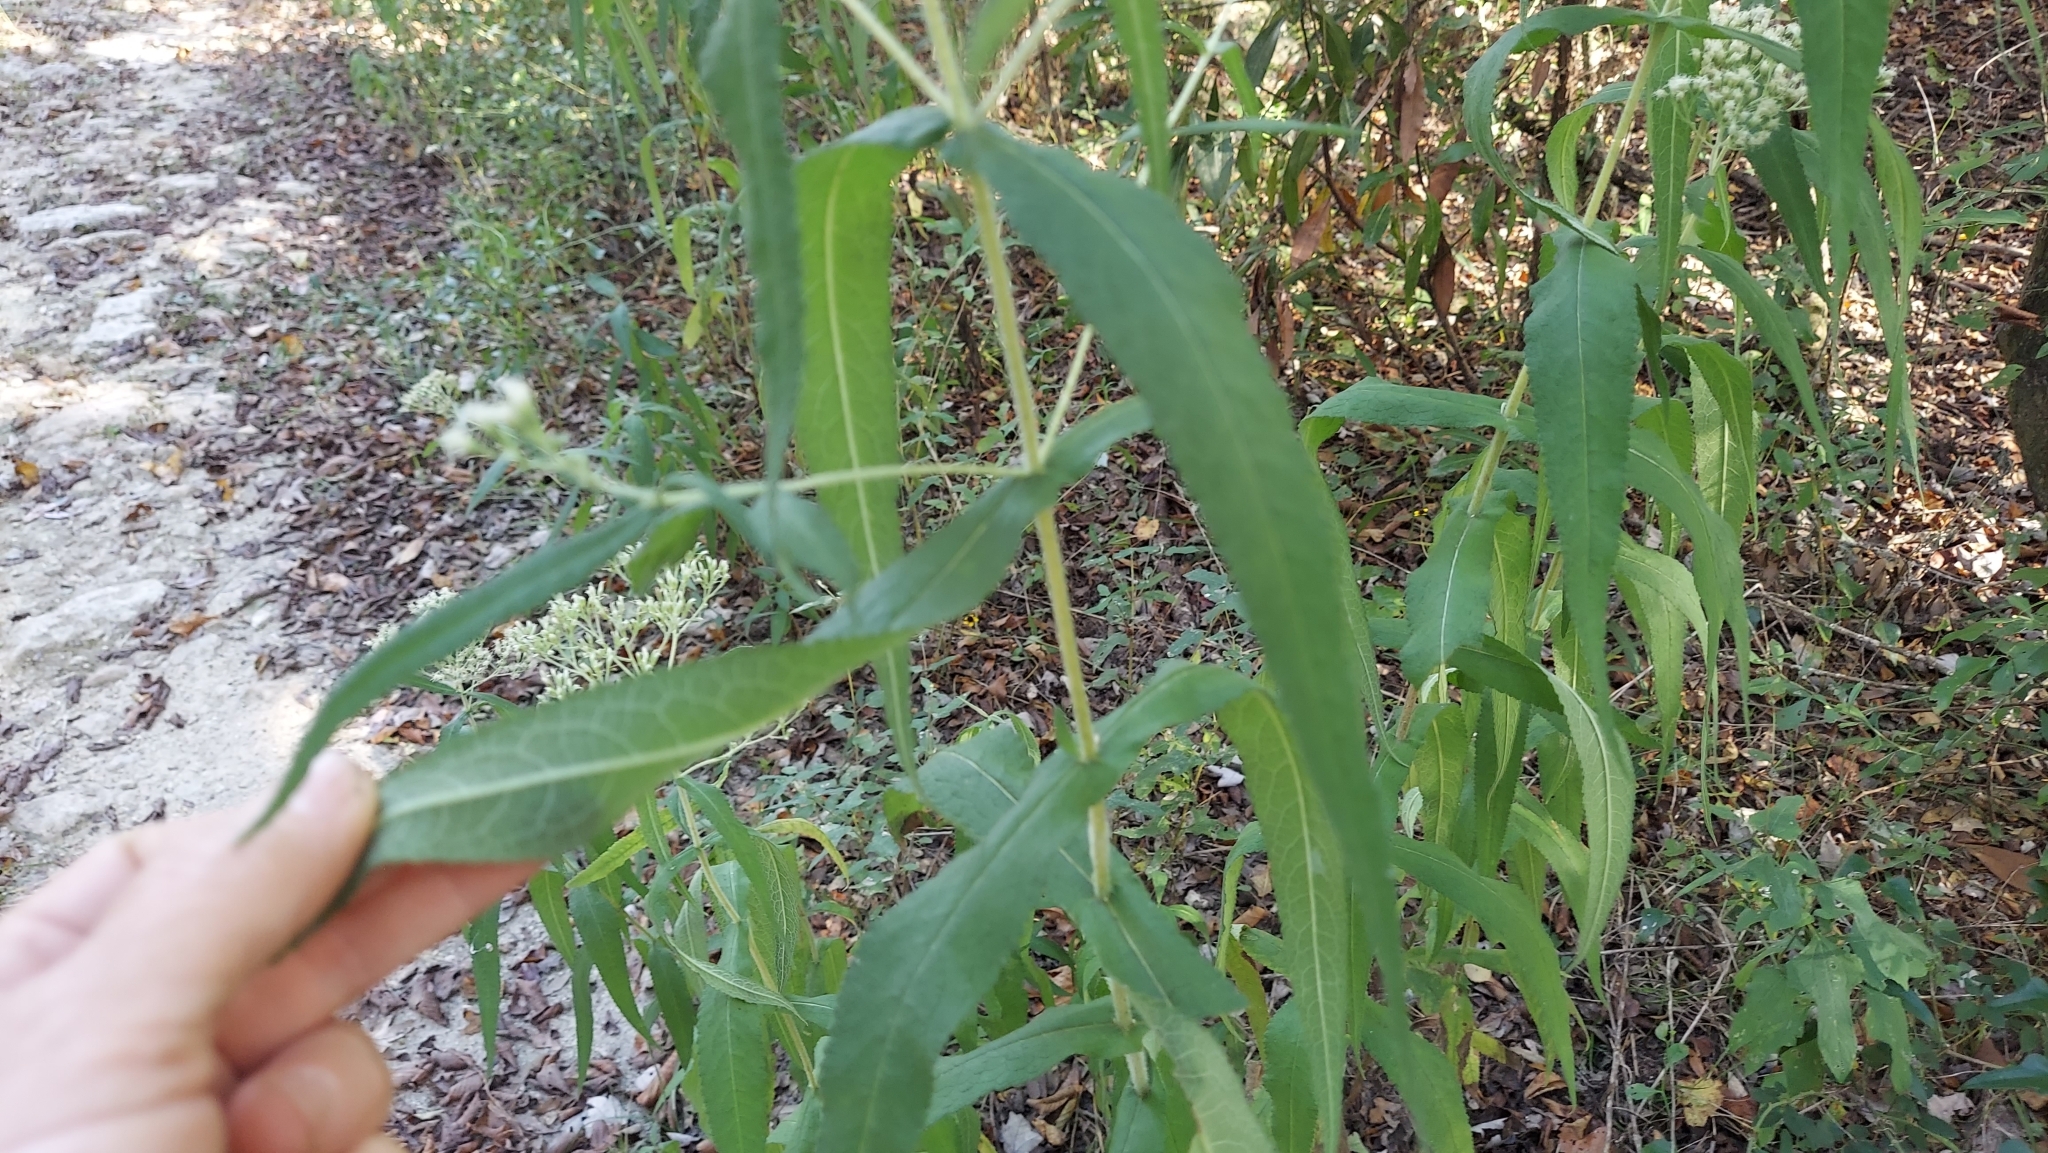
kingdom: Plantae
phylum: Tracheophyta
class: Magnoliopsida
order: Asterales
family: Asteraceae
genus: Eupatorium
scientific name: Eupatorium perfoliatum
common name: Boneset
